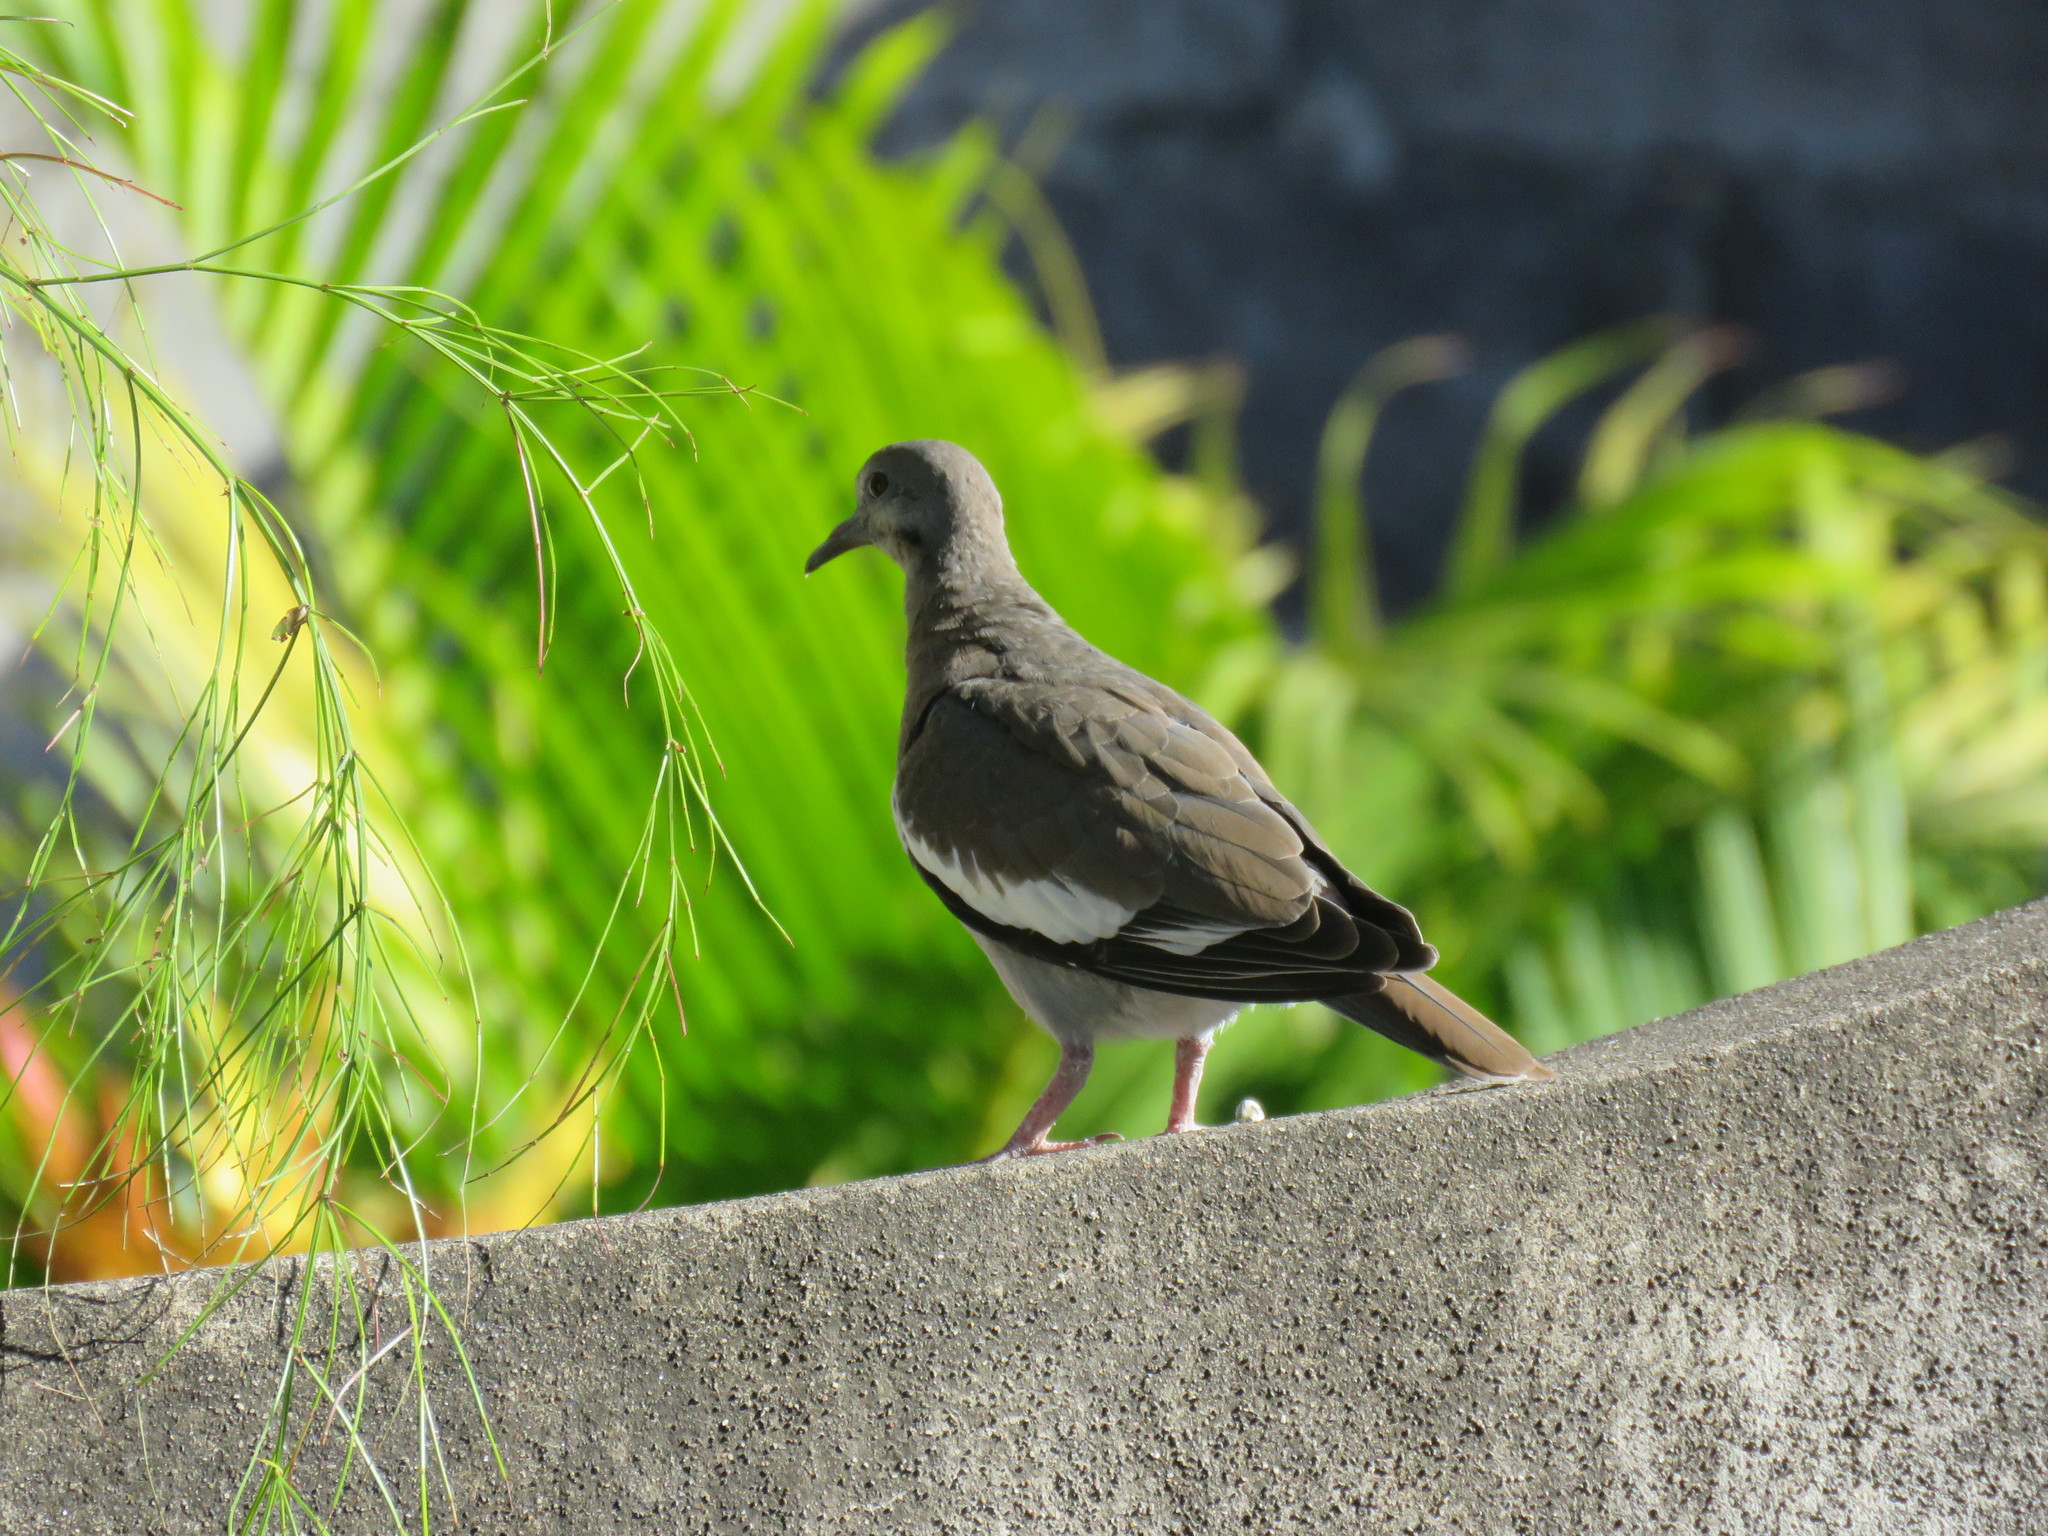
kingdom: Animalia
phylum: Chordata
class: Aves
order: Columbiformes
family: Columbidae
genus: Zenaida
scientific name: Zenaida asiatica
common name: White-winged dove
